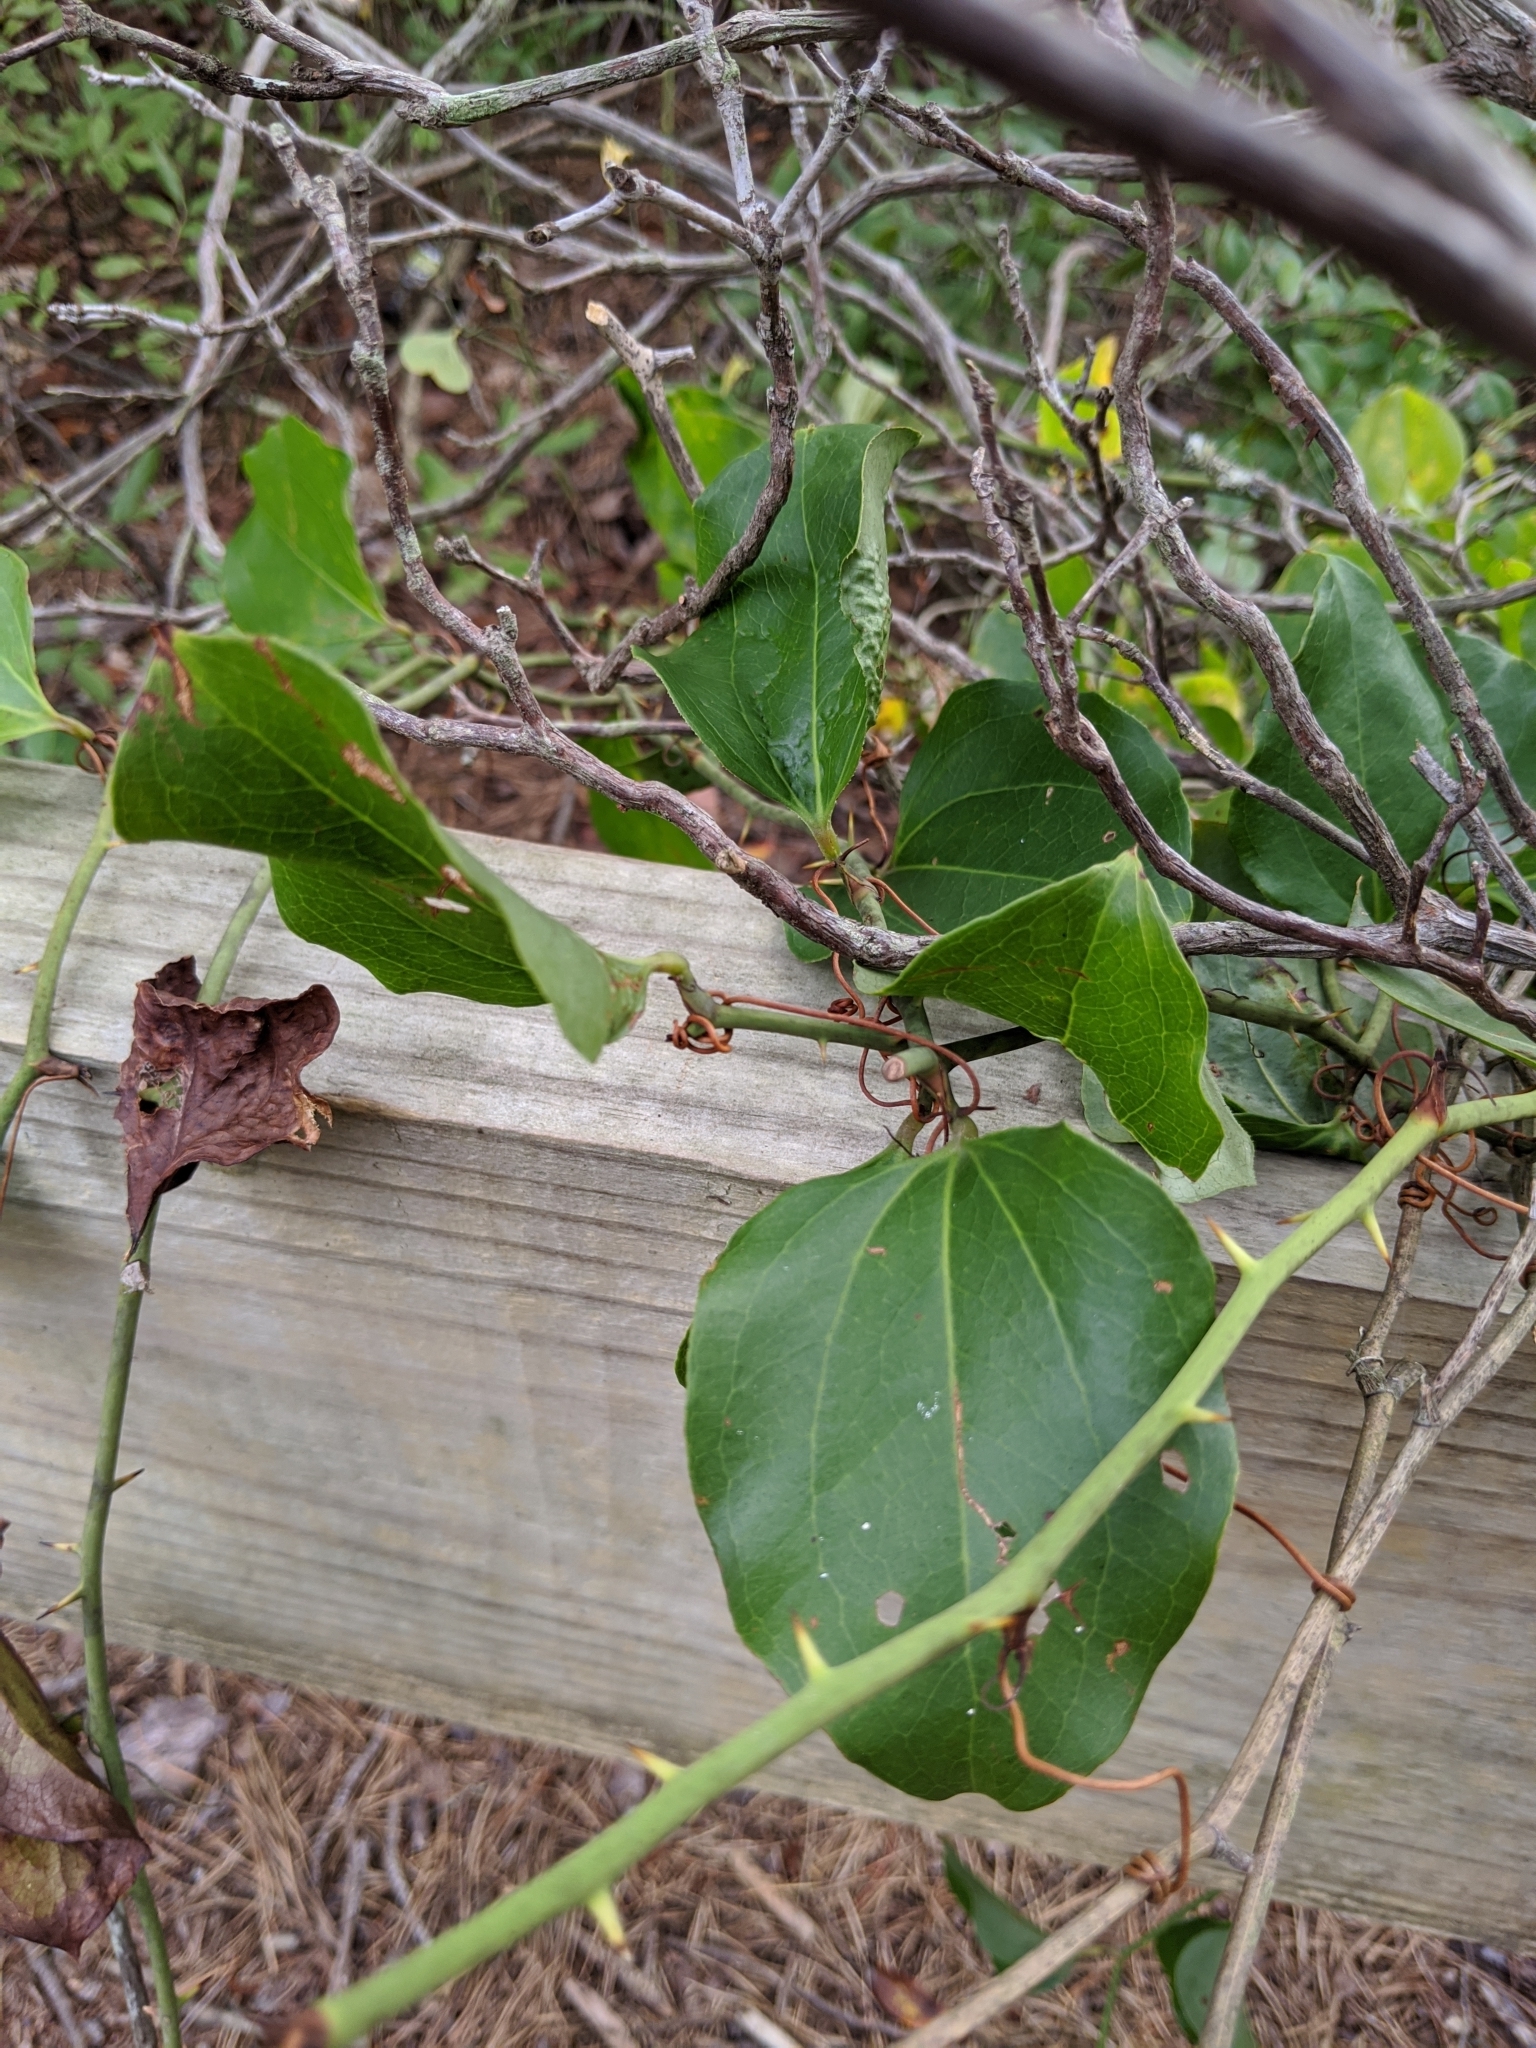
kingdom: Plantae
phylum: Tracheophyta
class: Liliopsida
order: Liliales
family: Smilacaceae
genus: Smilax
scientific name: Smilax rotundifolia
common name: Bullbriar
